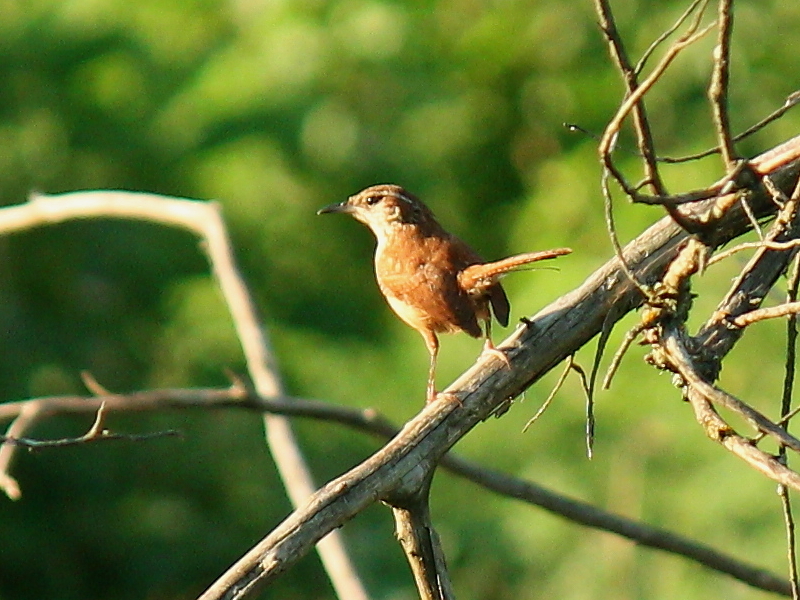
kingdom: Animalia
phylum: Chordata
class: Aves
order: Passeriformes
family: Troglodytidae
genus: Thryothorus
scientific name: Thryothorus ludovicianus
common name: Carolina wren
